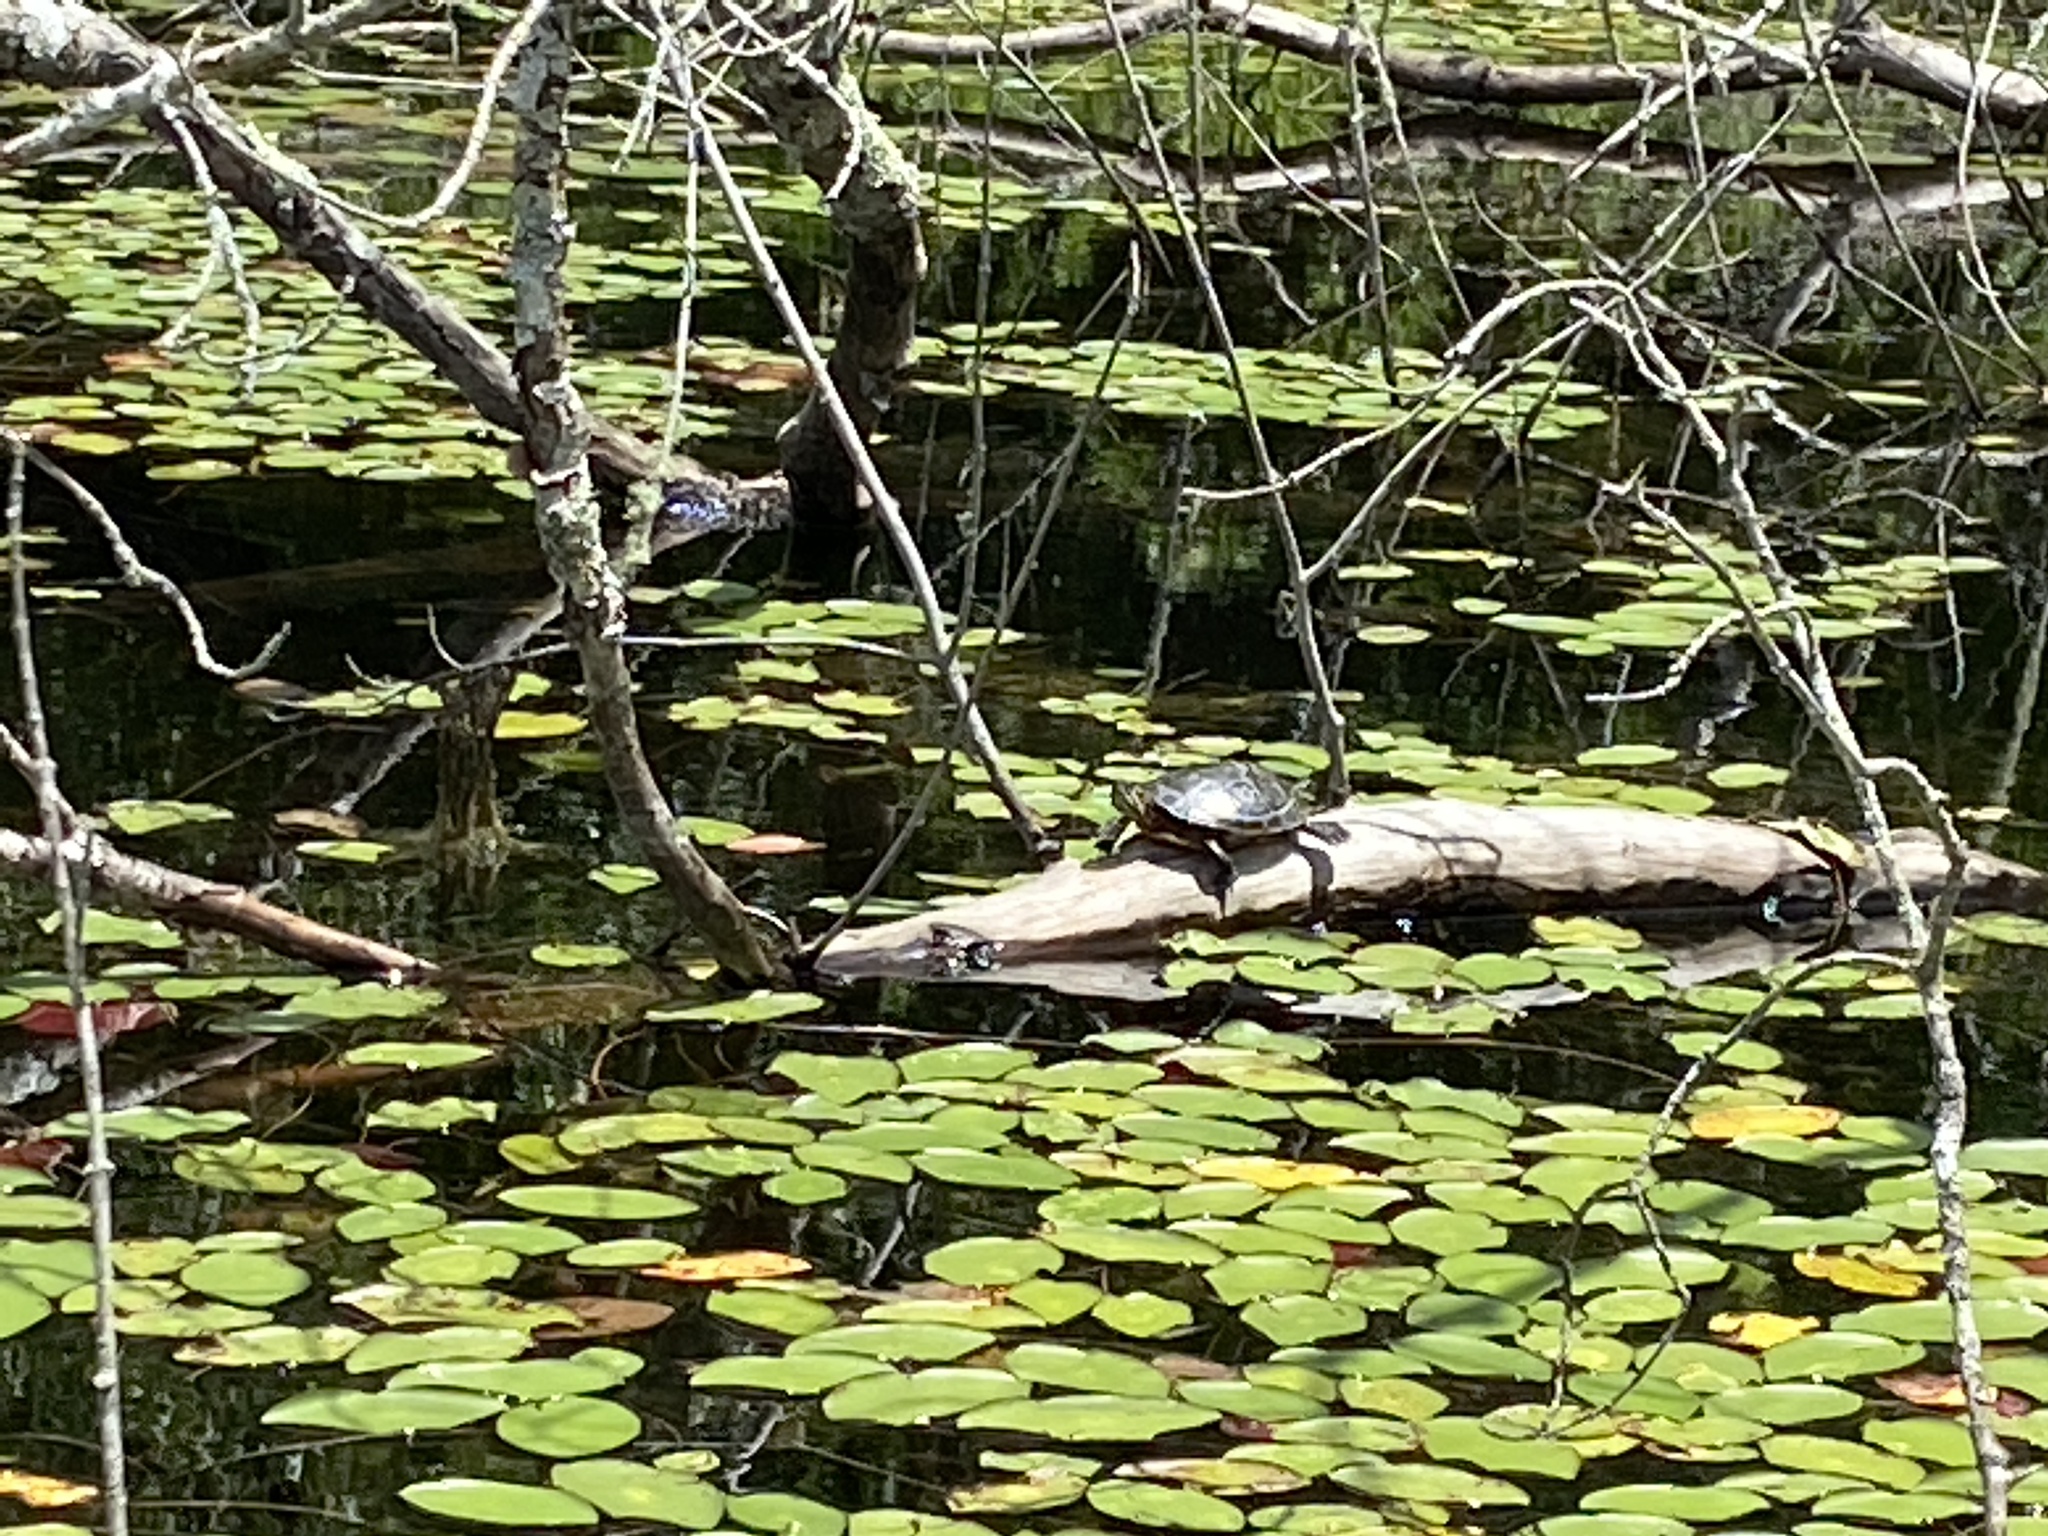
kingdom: Animalia
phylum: Chordata
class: Testudines
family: Emydidae
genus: Chrysemys
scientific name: Chrysemys picta
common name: Painted turtle
